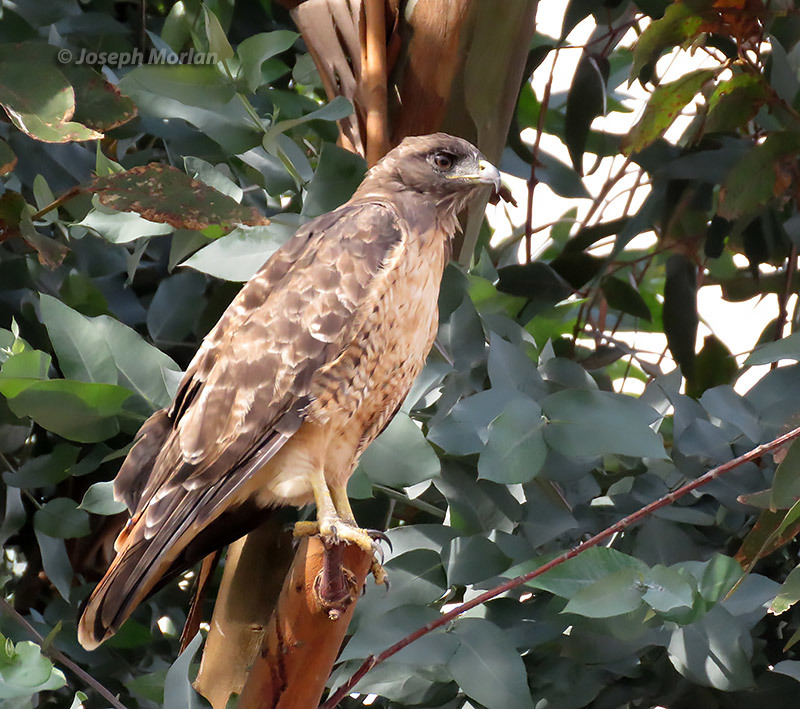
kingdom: Animalia
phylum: Chordata
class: Aves
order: Accipitriformes
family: Accipitridae
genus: Buteo
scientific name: Buteo jamaicensis
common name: Red-tailed hawk
